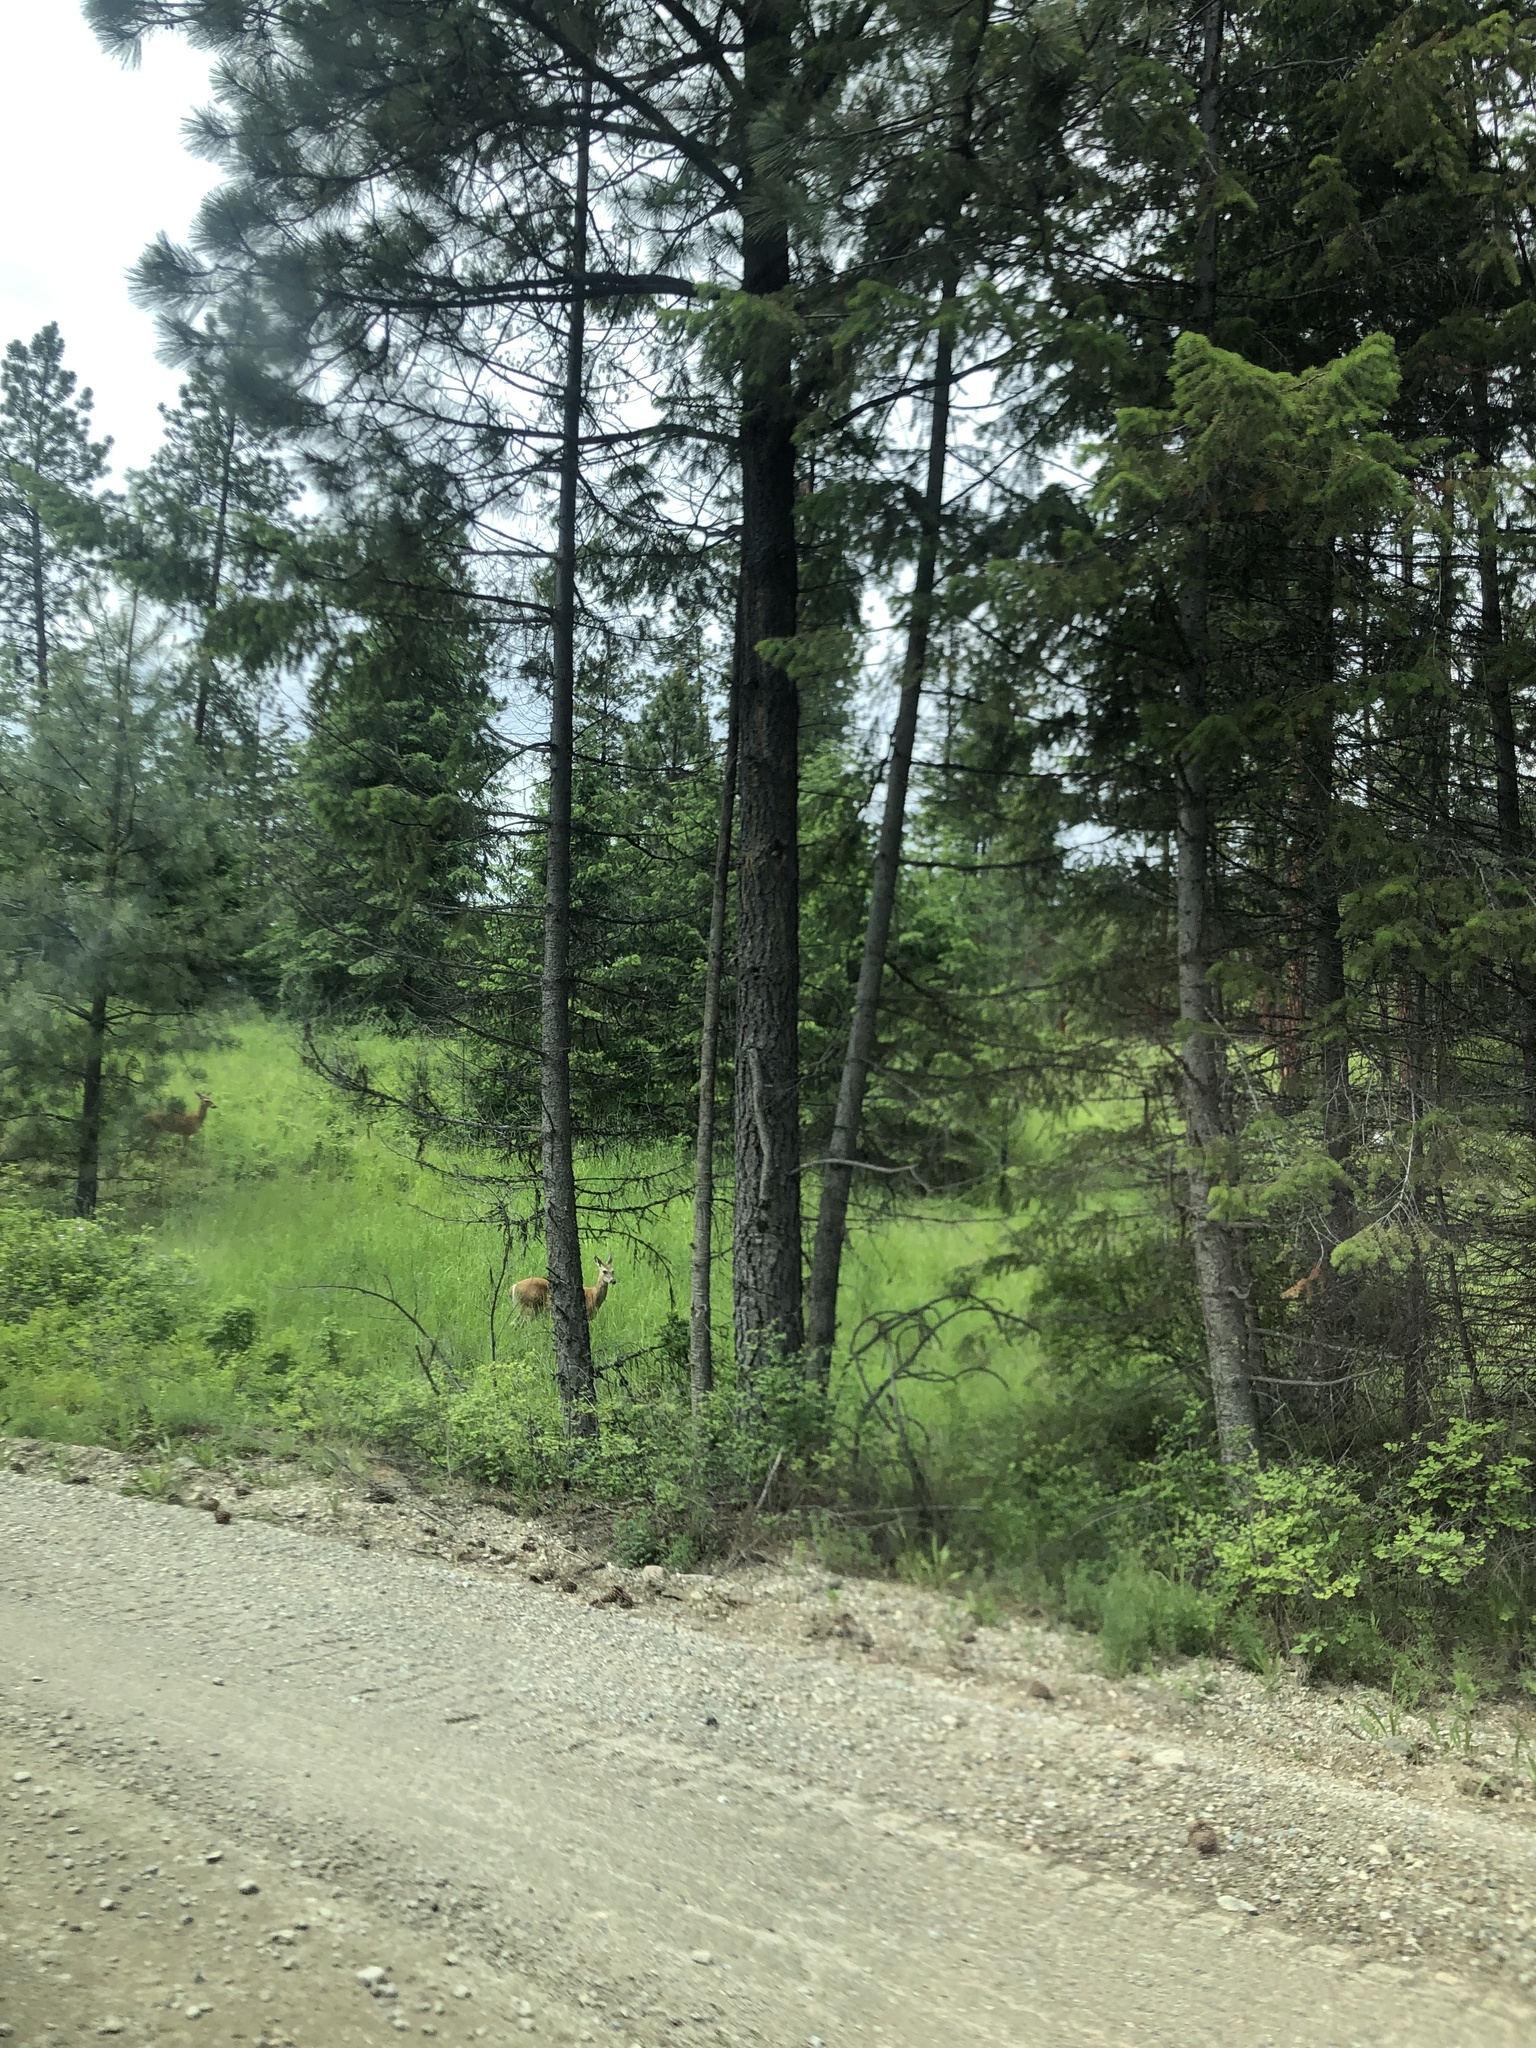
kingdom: Animalia
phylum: Chordata
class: Mammalia
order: Artiodactyla
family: Cervidae
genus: Odocoileus
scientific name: Odocoileus virginianus
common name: White-tailed deer
